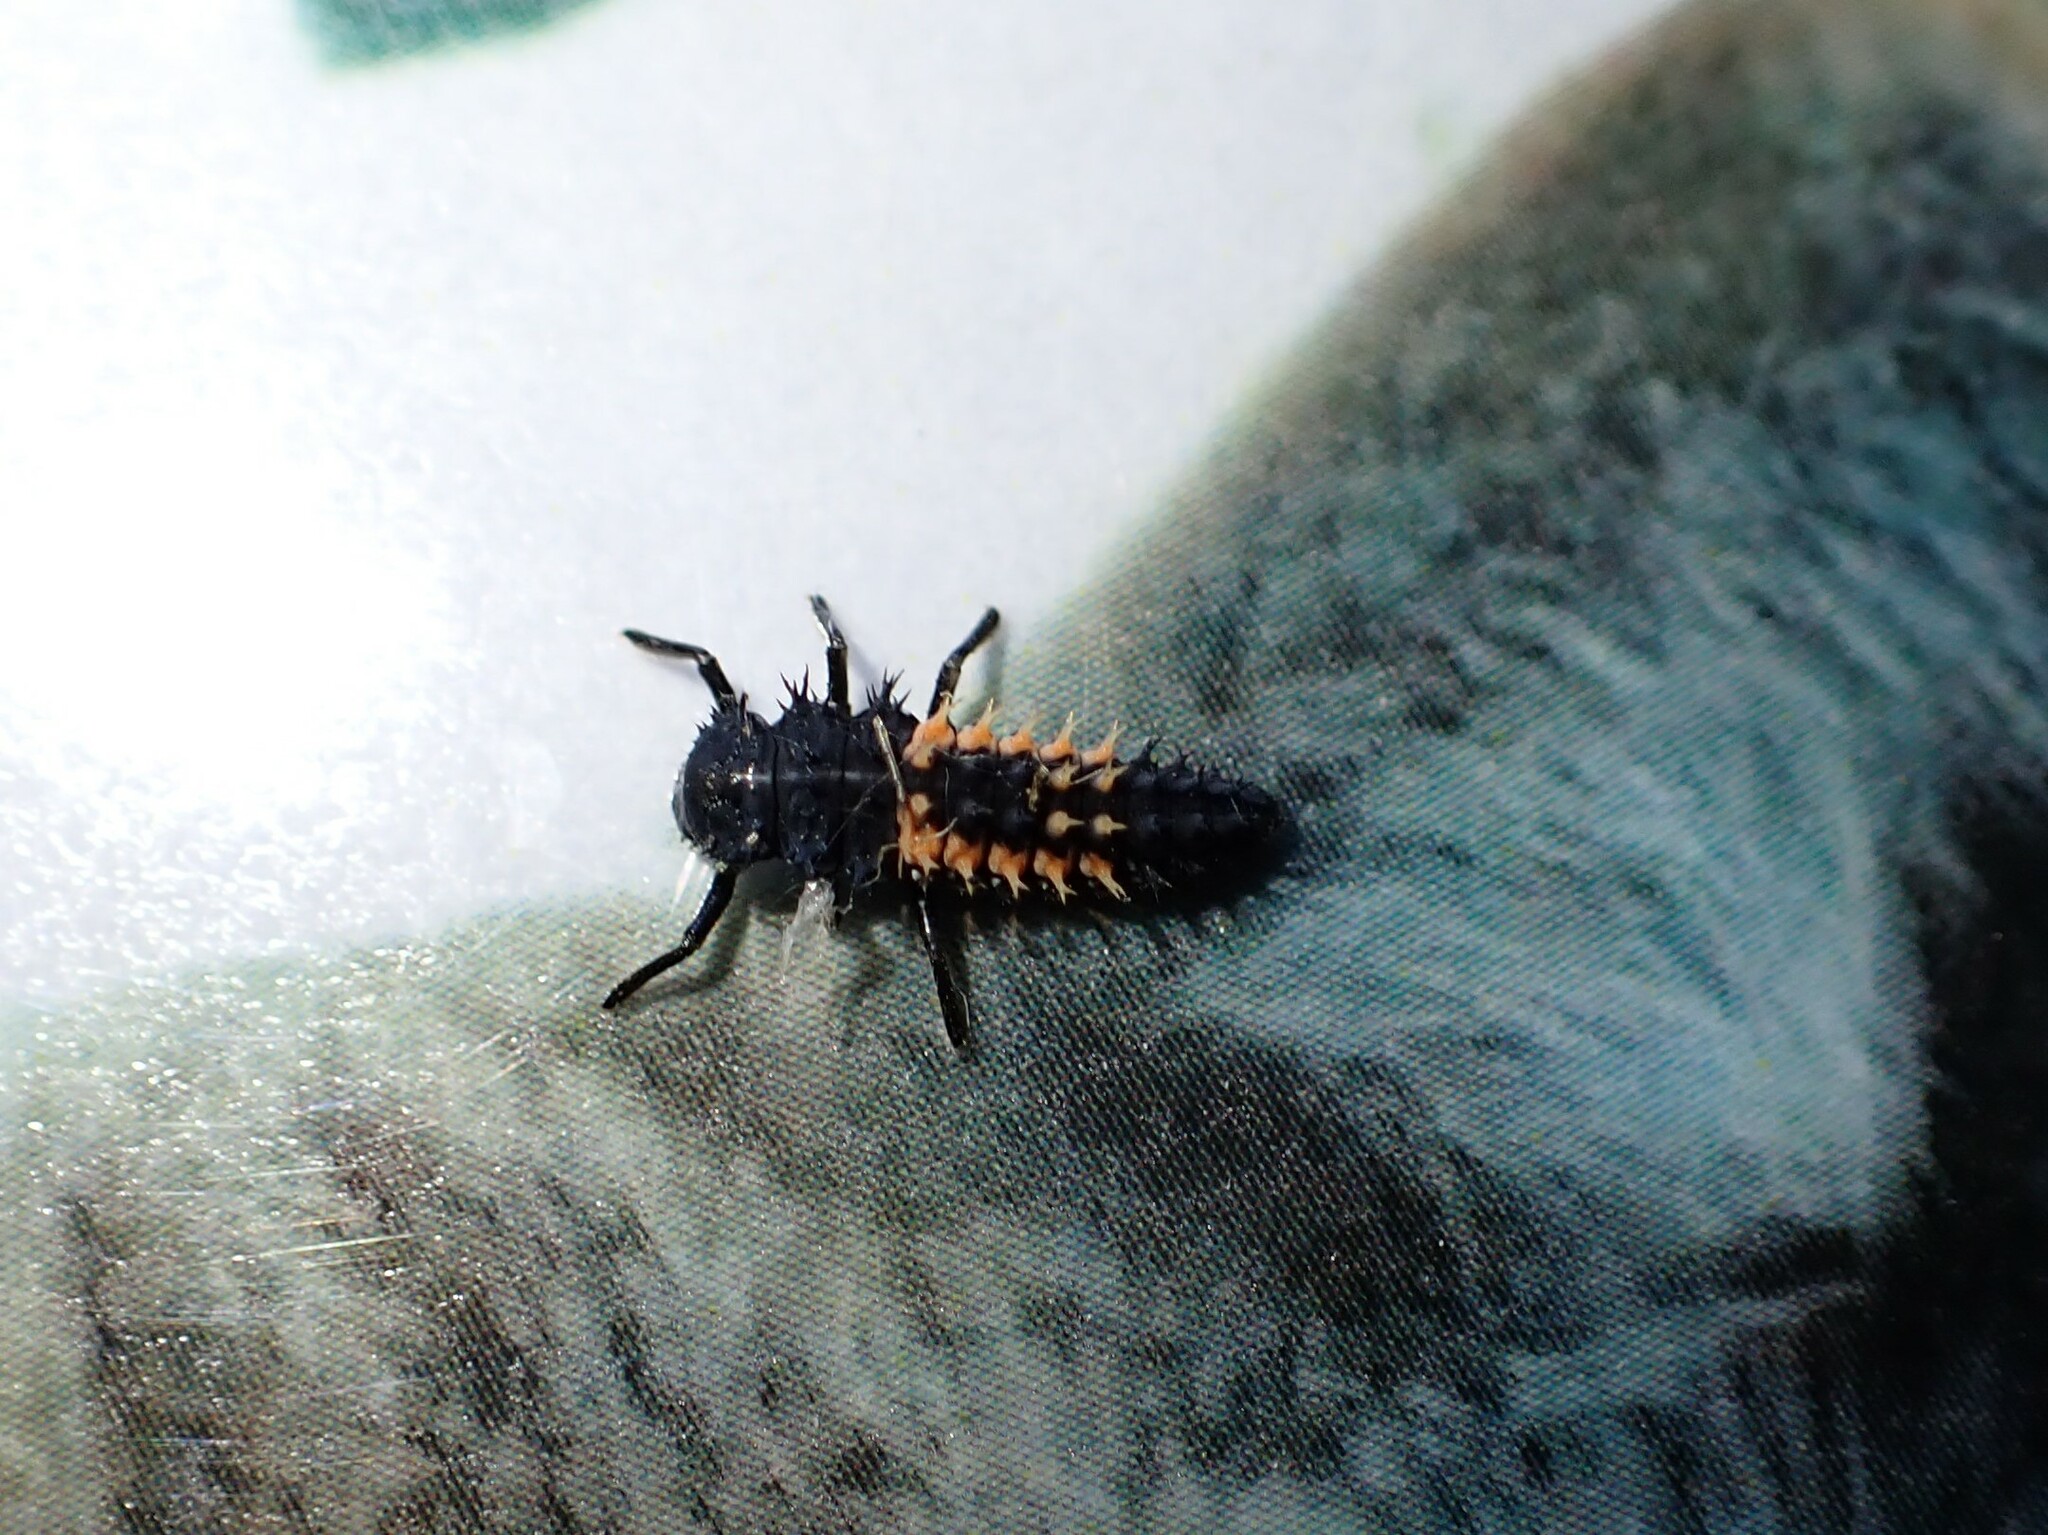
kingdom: Animalia
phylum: Arthropoda
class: Insecta
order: Coleoptera
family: Coccinellidae
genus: Harmonia
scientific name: Harmonia axyridis
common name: Harlequin ladybird
